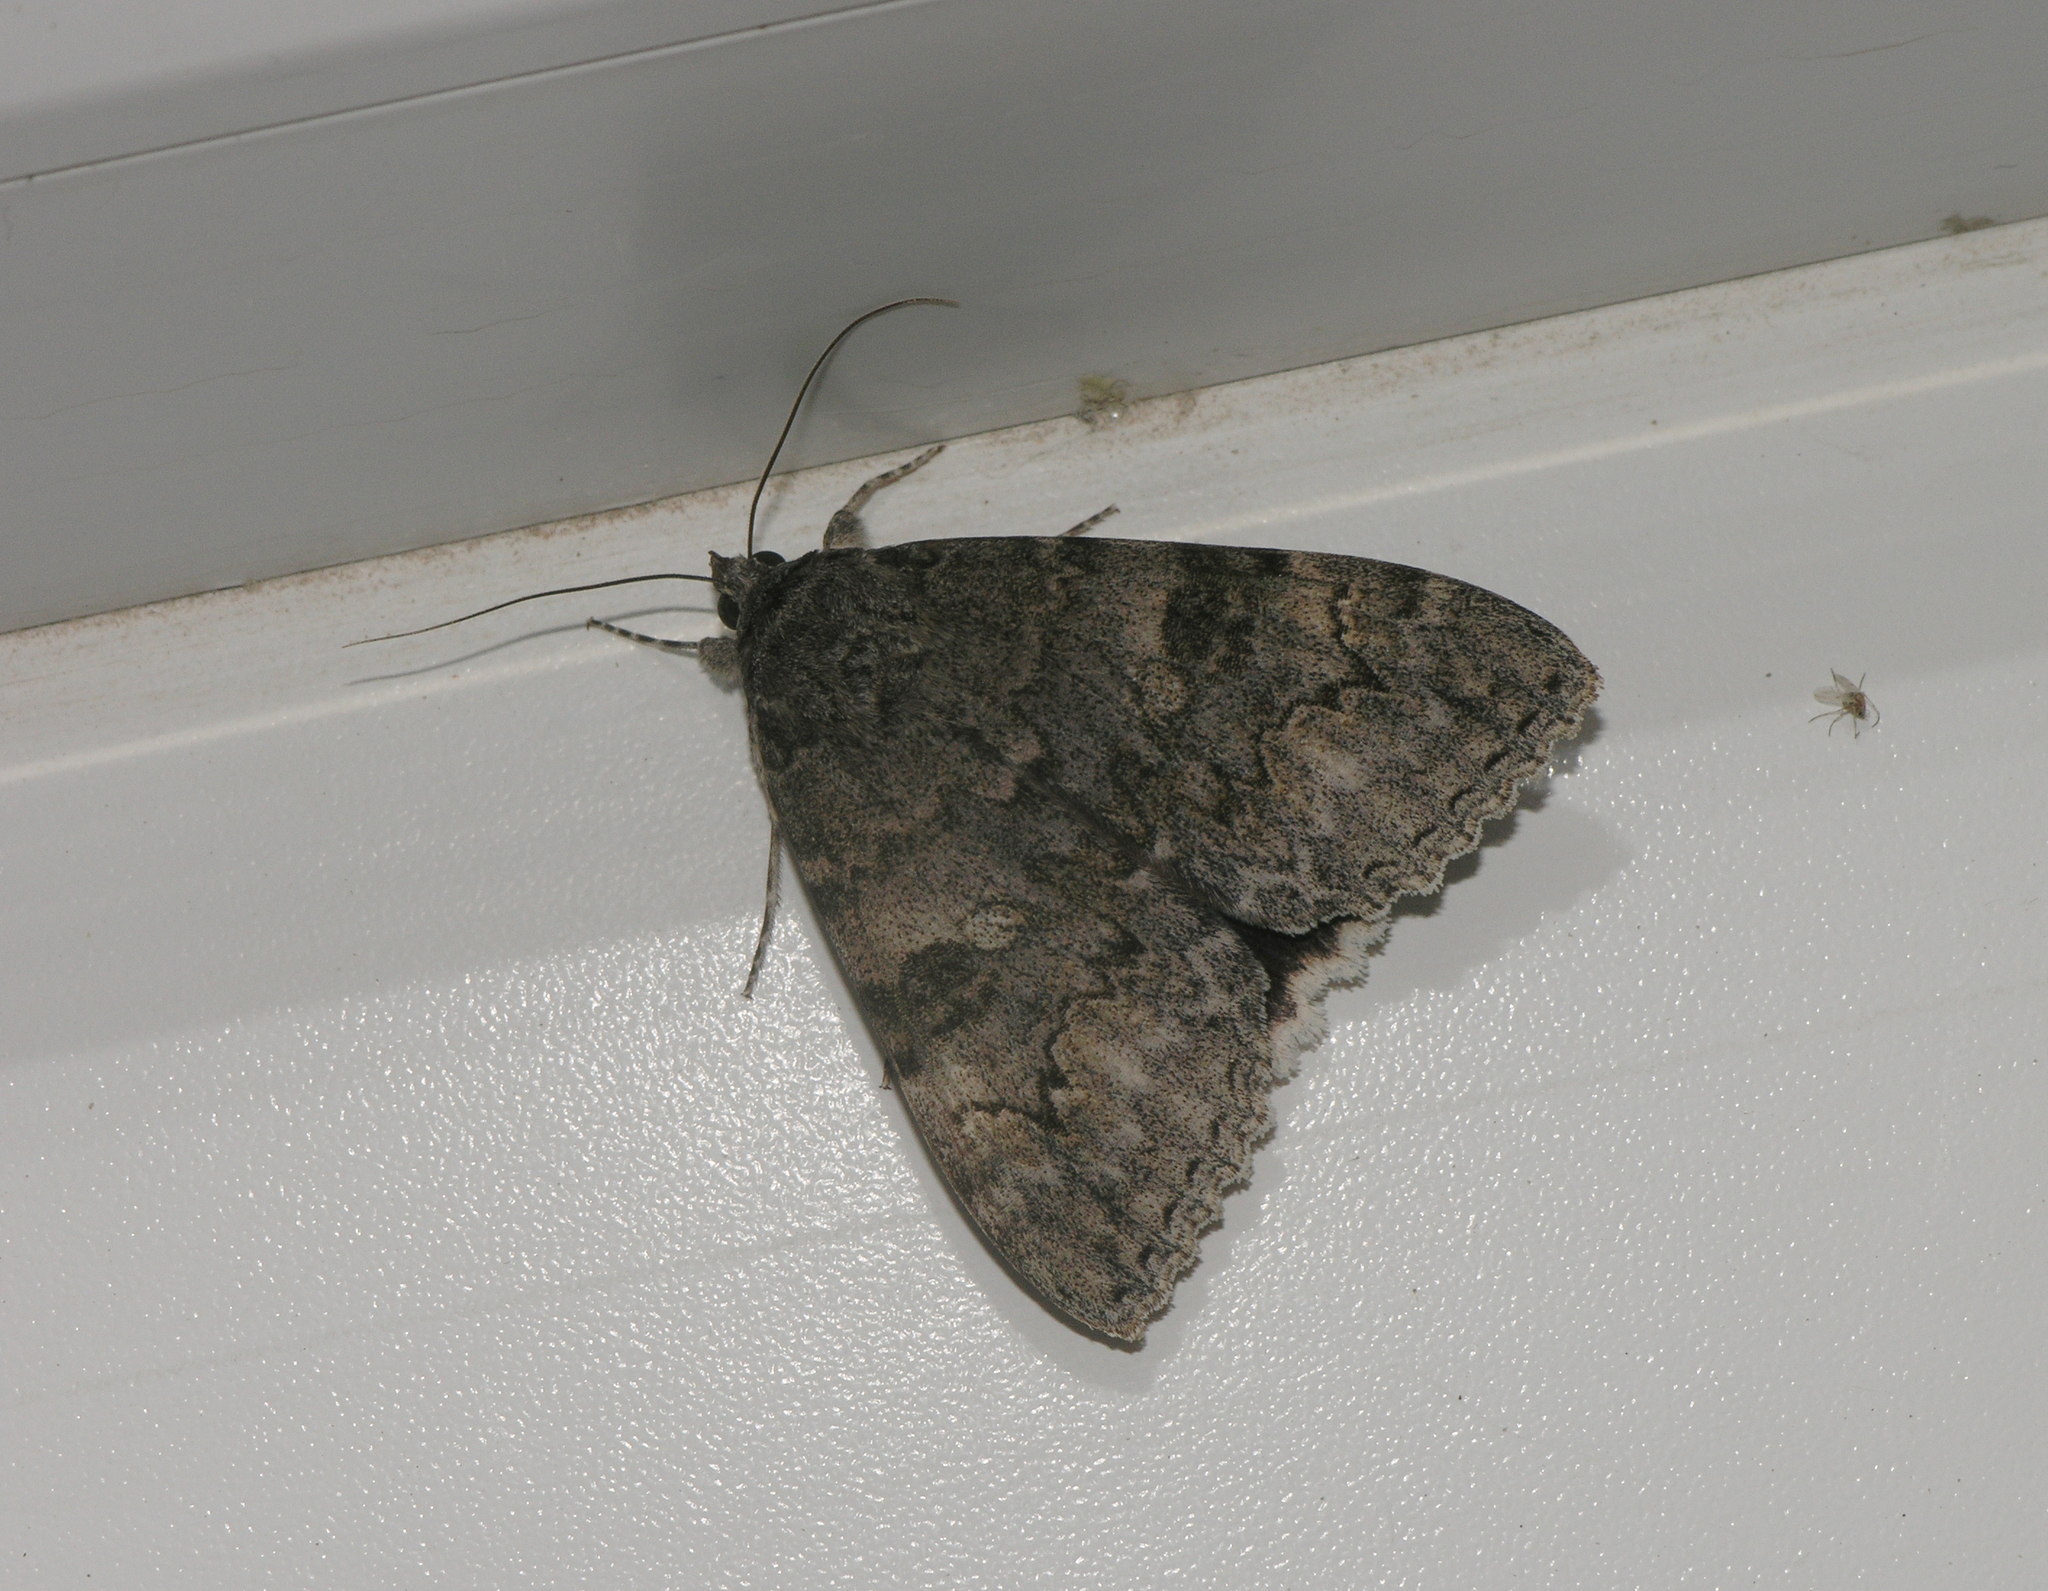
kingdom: Animalia
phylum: Arthropoda
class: Insecta
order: Lepidoptera
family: Erebidae
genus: Catocala
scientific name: Catocala nupta
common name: Red underwing
